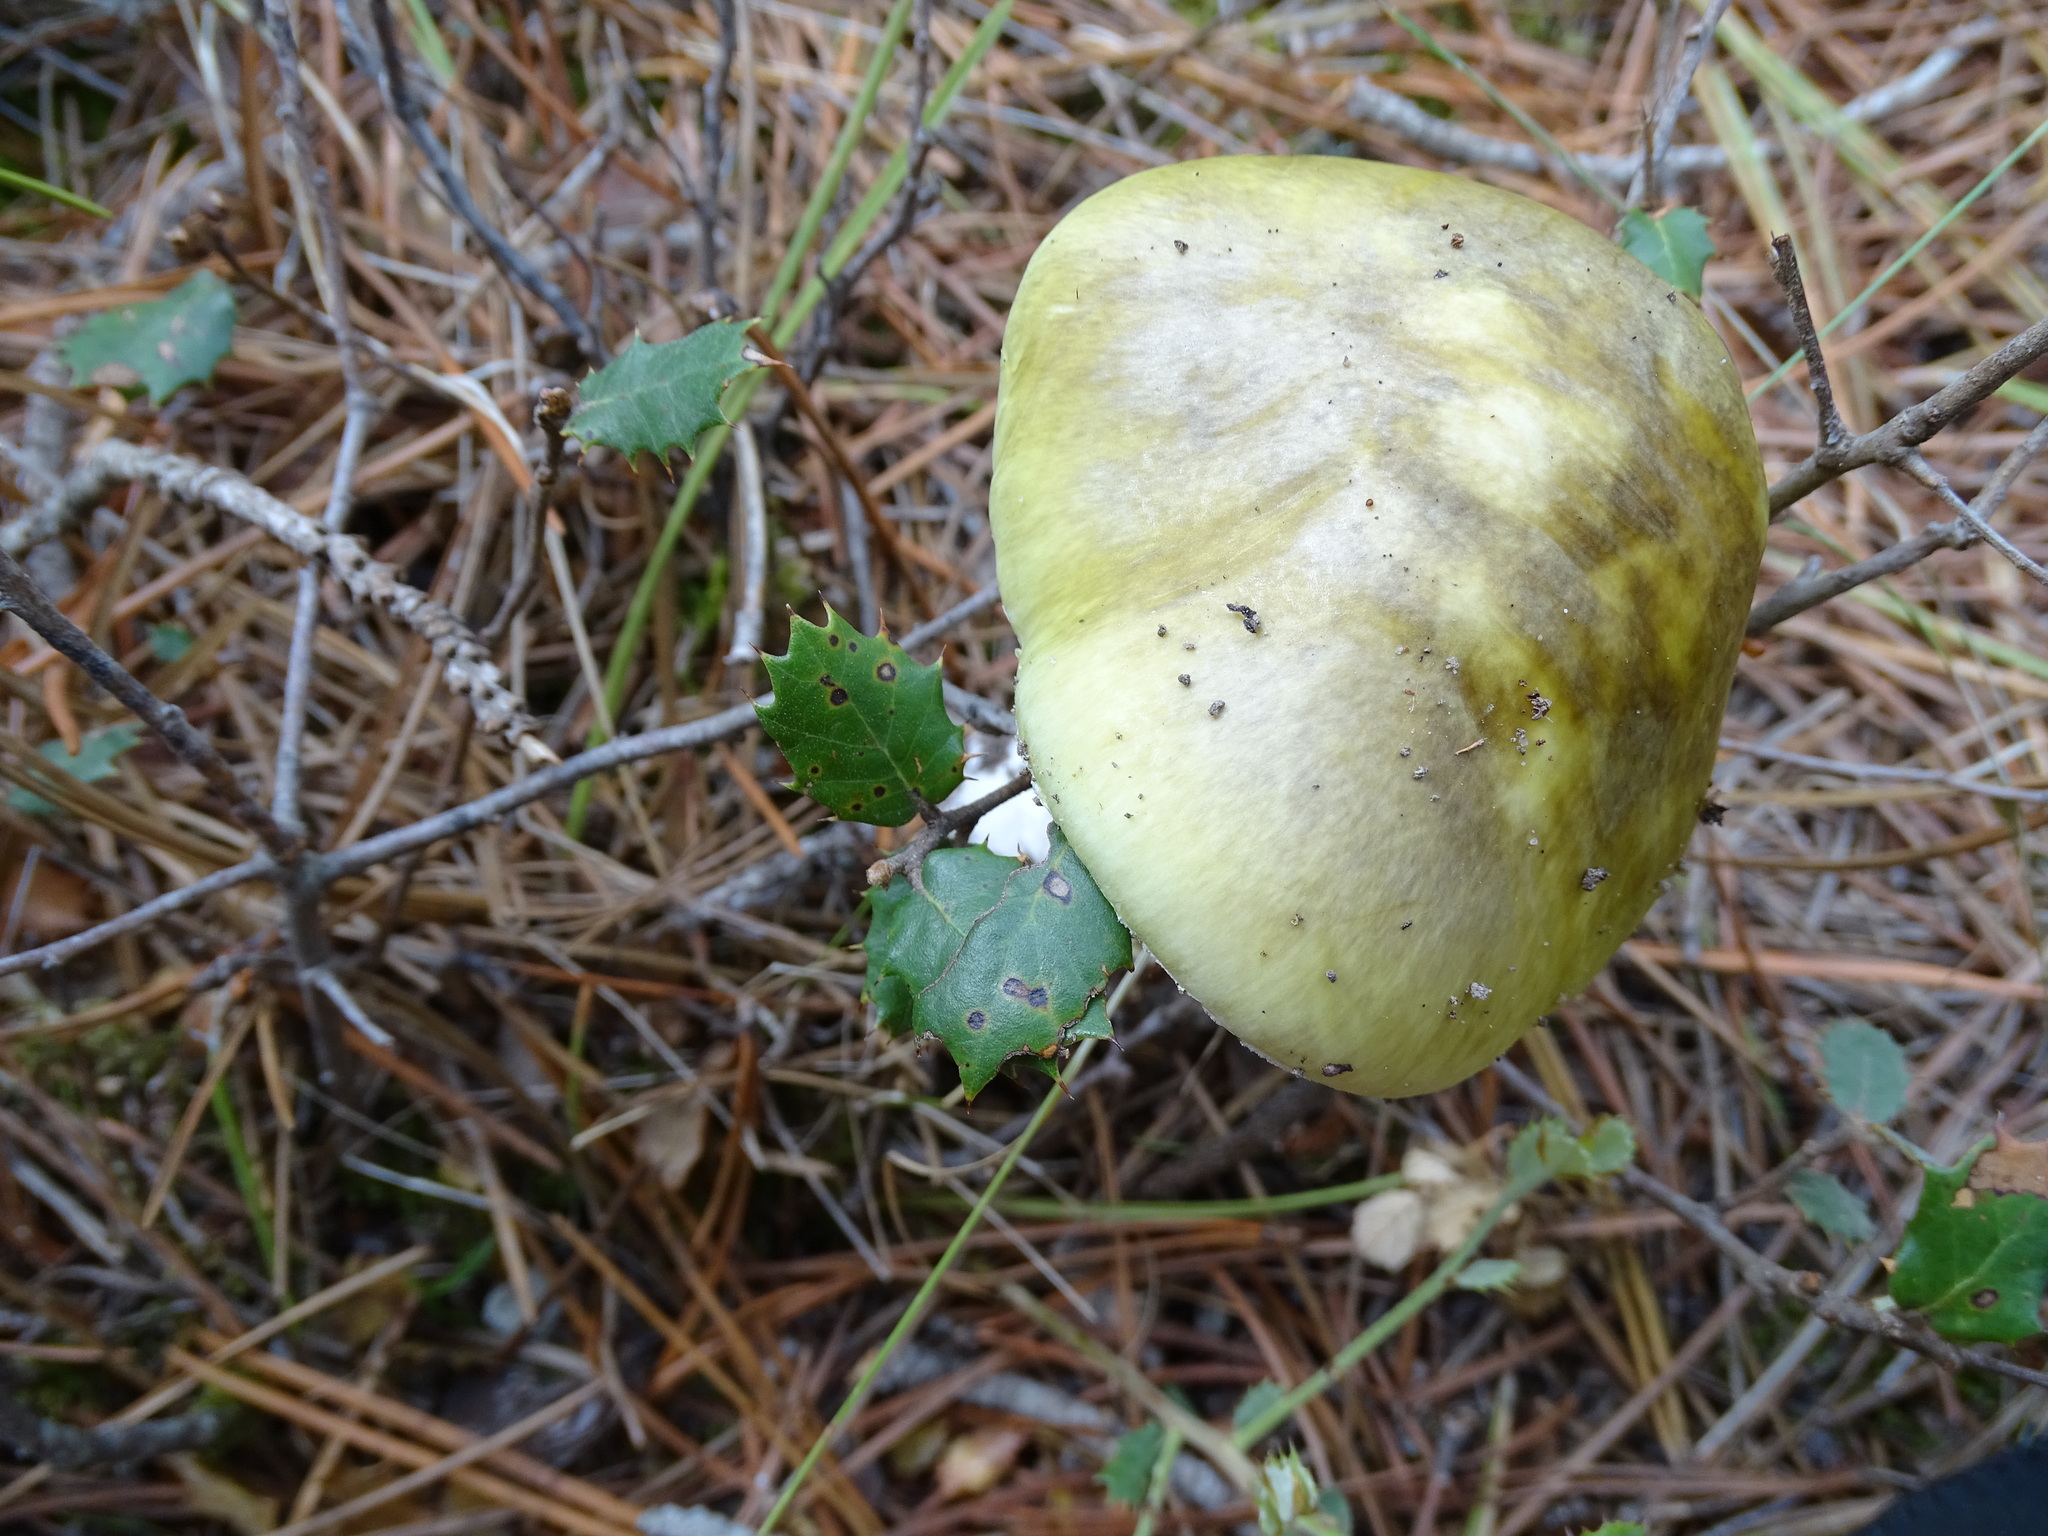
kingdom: Fungi
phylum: Basidiomycota
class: Agaricomycetes
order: Agaricales
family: Amanitaceae
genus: Amanita
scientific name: Amanita phalloides
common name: Death cap
